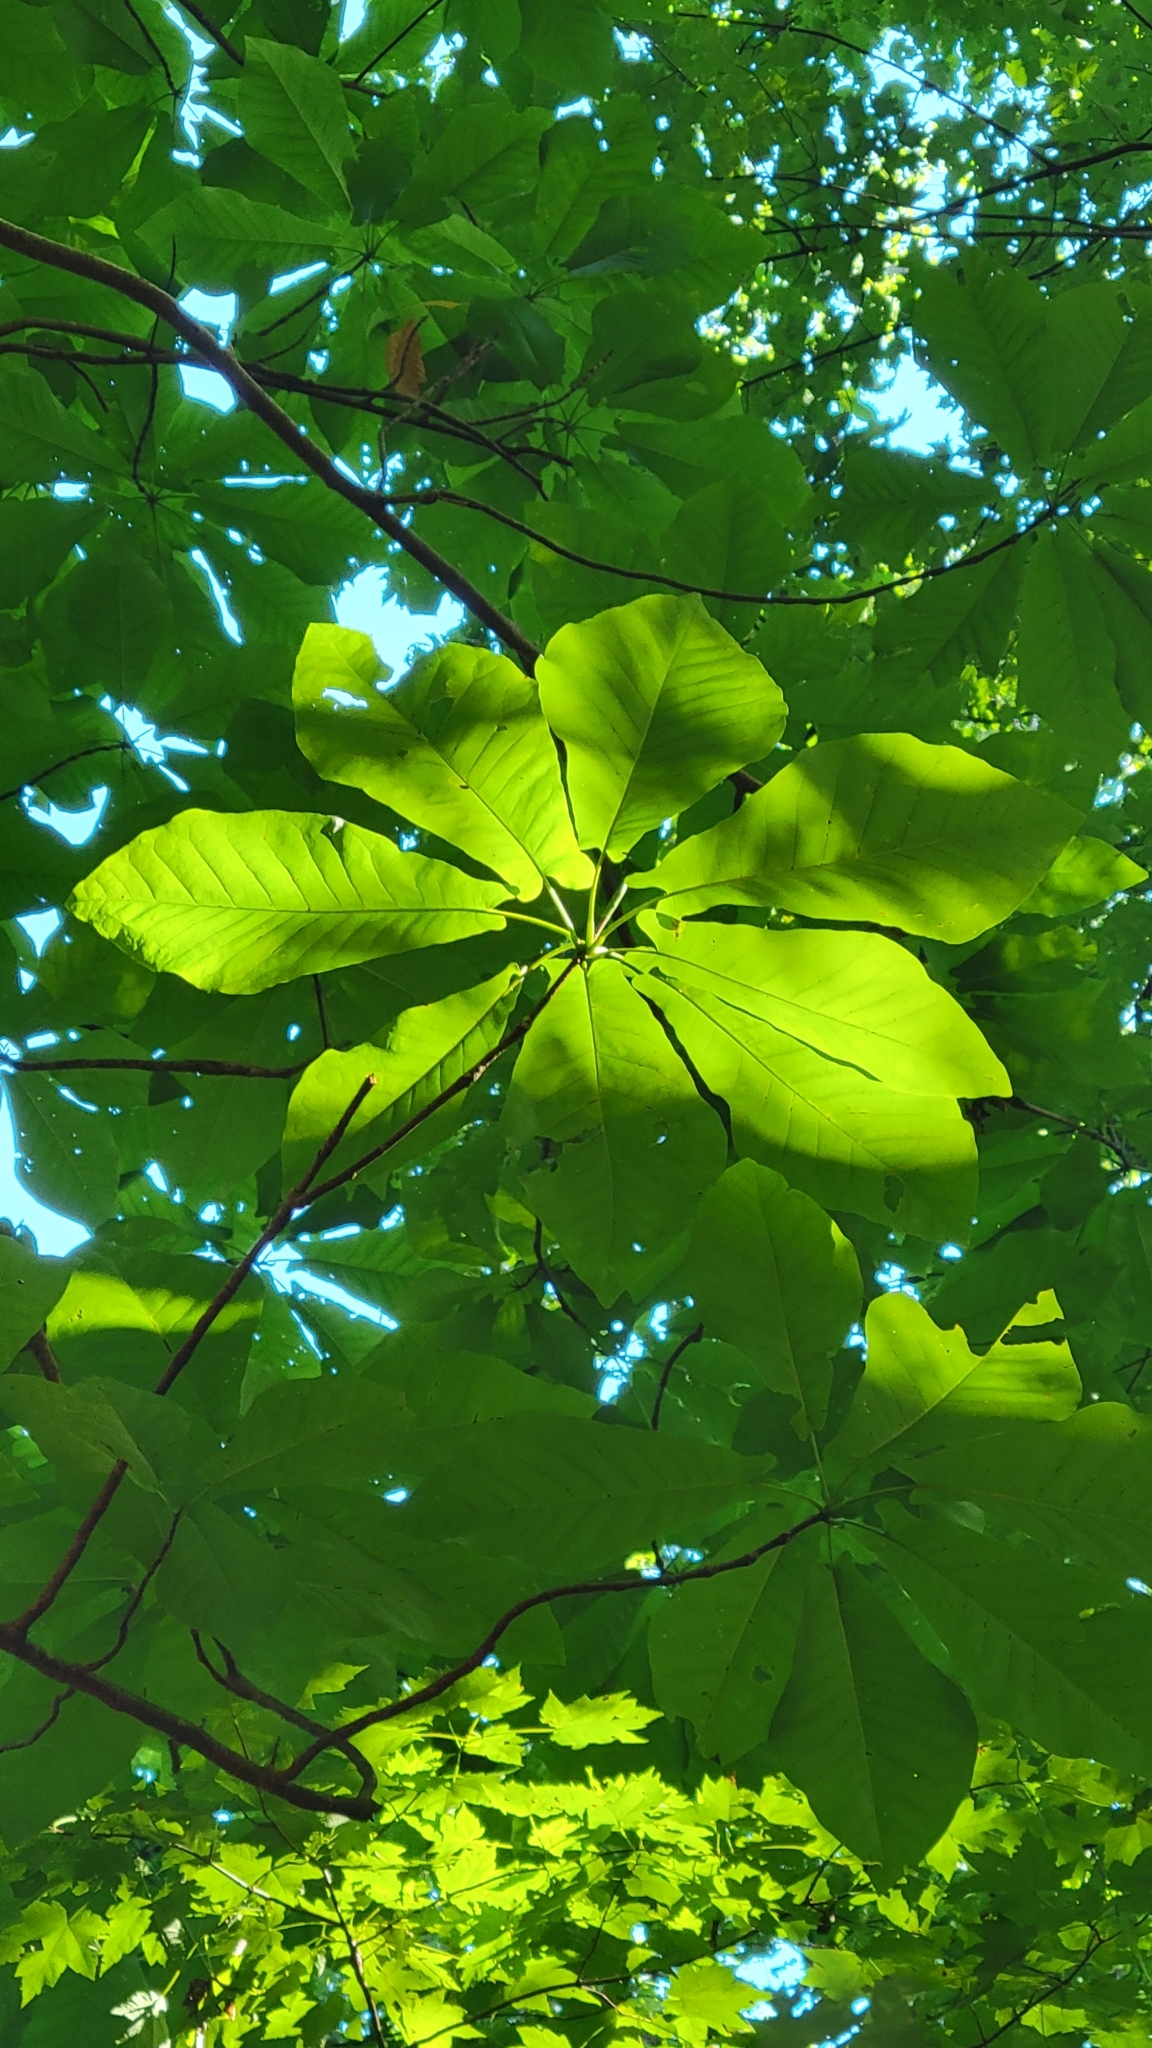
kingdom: Plantae
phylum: Tracheophyta
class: Magnoliopsida
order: Magnoliales
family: Magnoliaceae
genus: Magnolia
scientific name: Magnolia fraseri
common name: Fraser's magnolia
